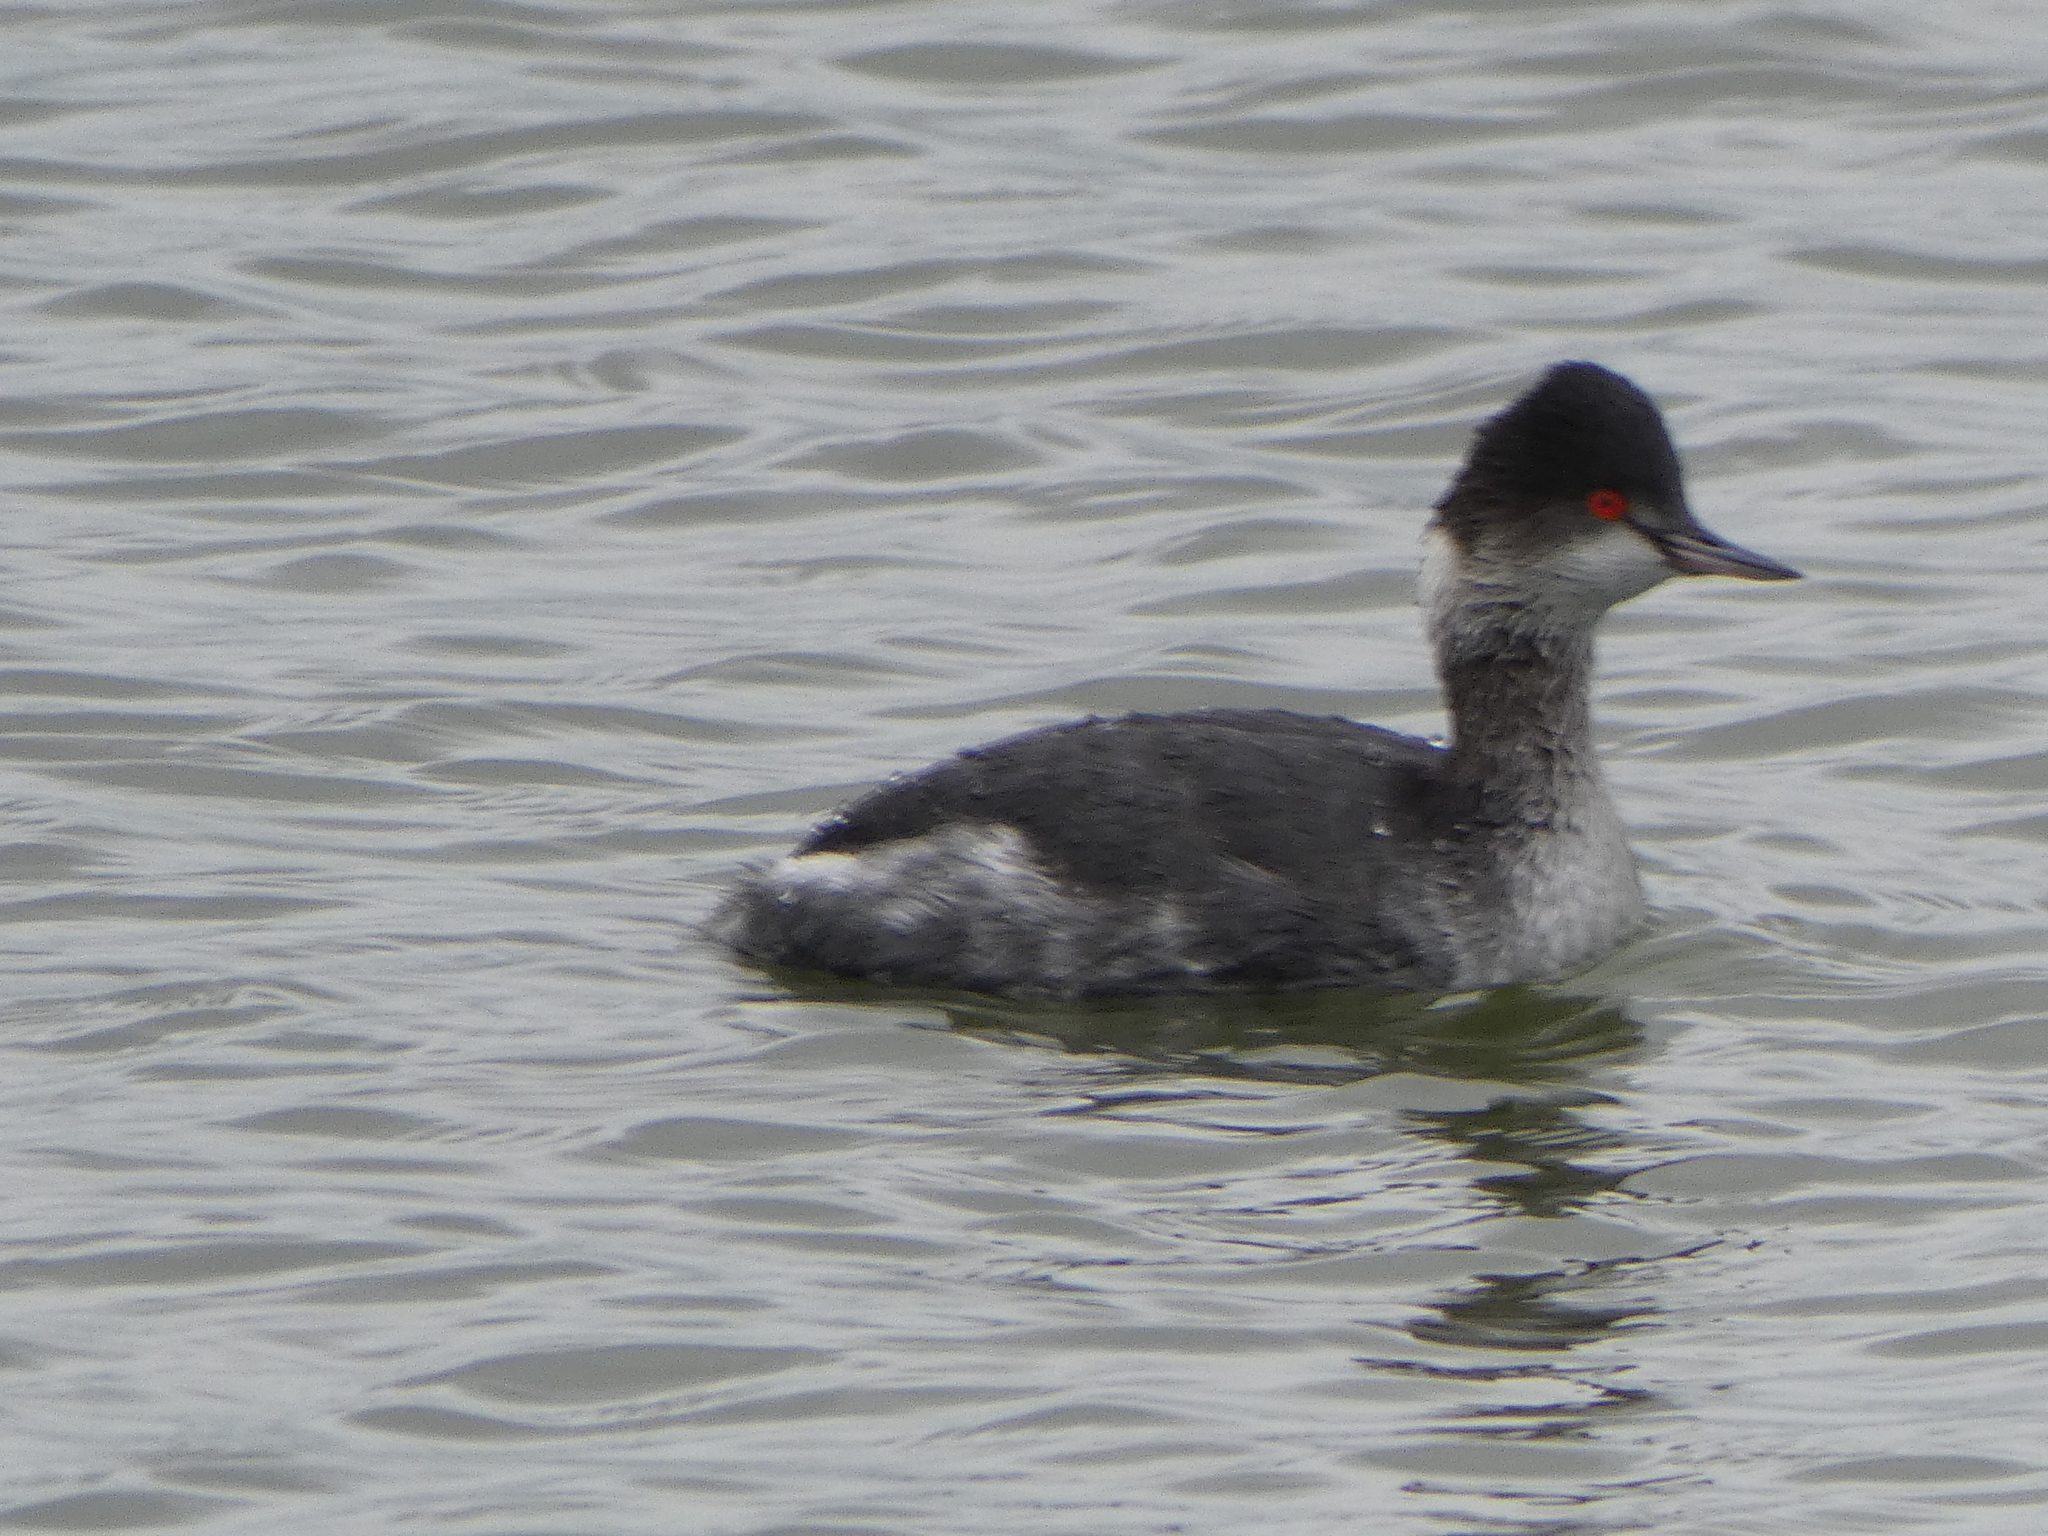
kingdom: Animalia
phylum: Chordata
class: Aves
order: Podicipediformes
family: Podicipedidae
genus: Podiceps
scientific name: Podiceps nigricollis
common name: Black-necked grebe
